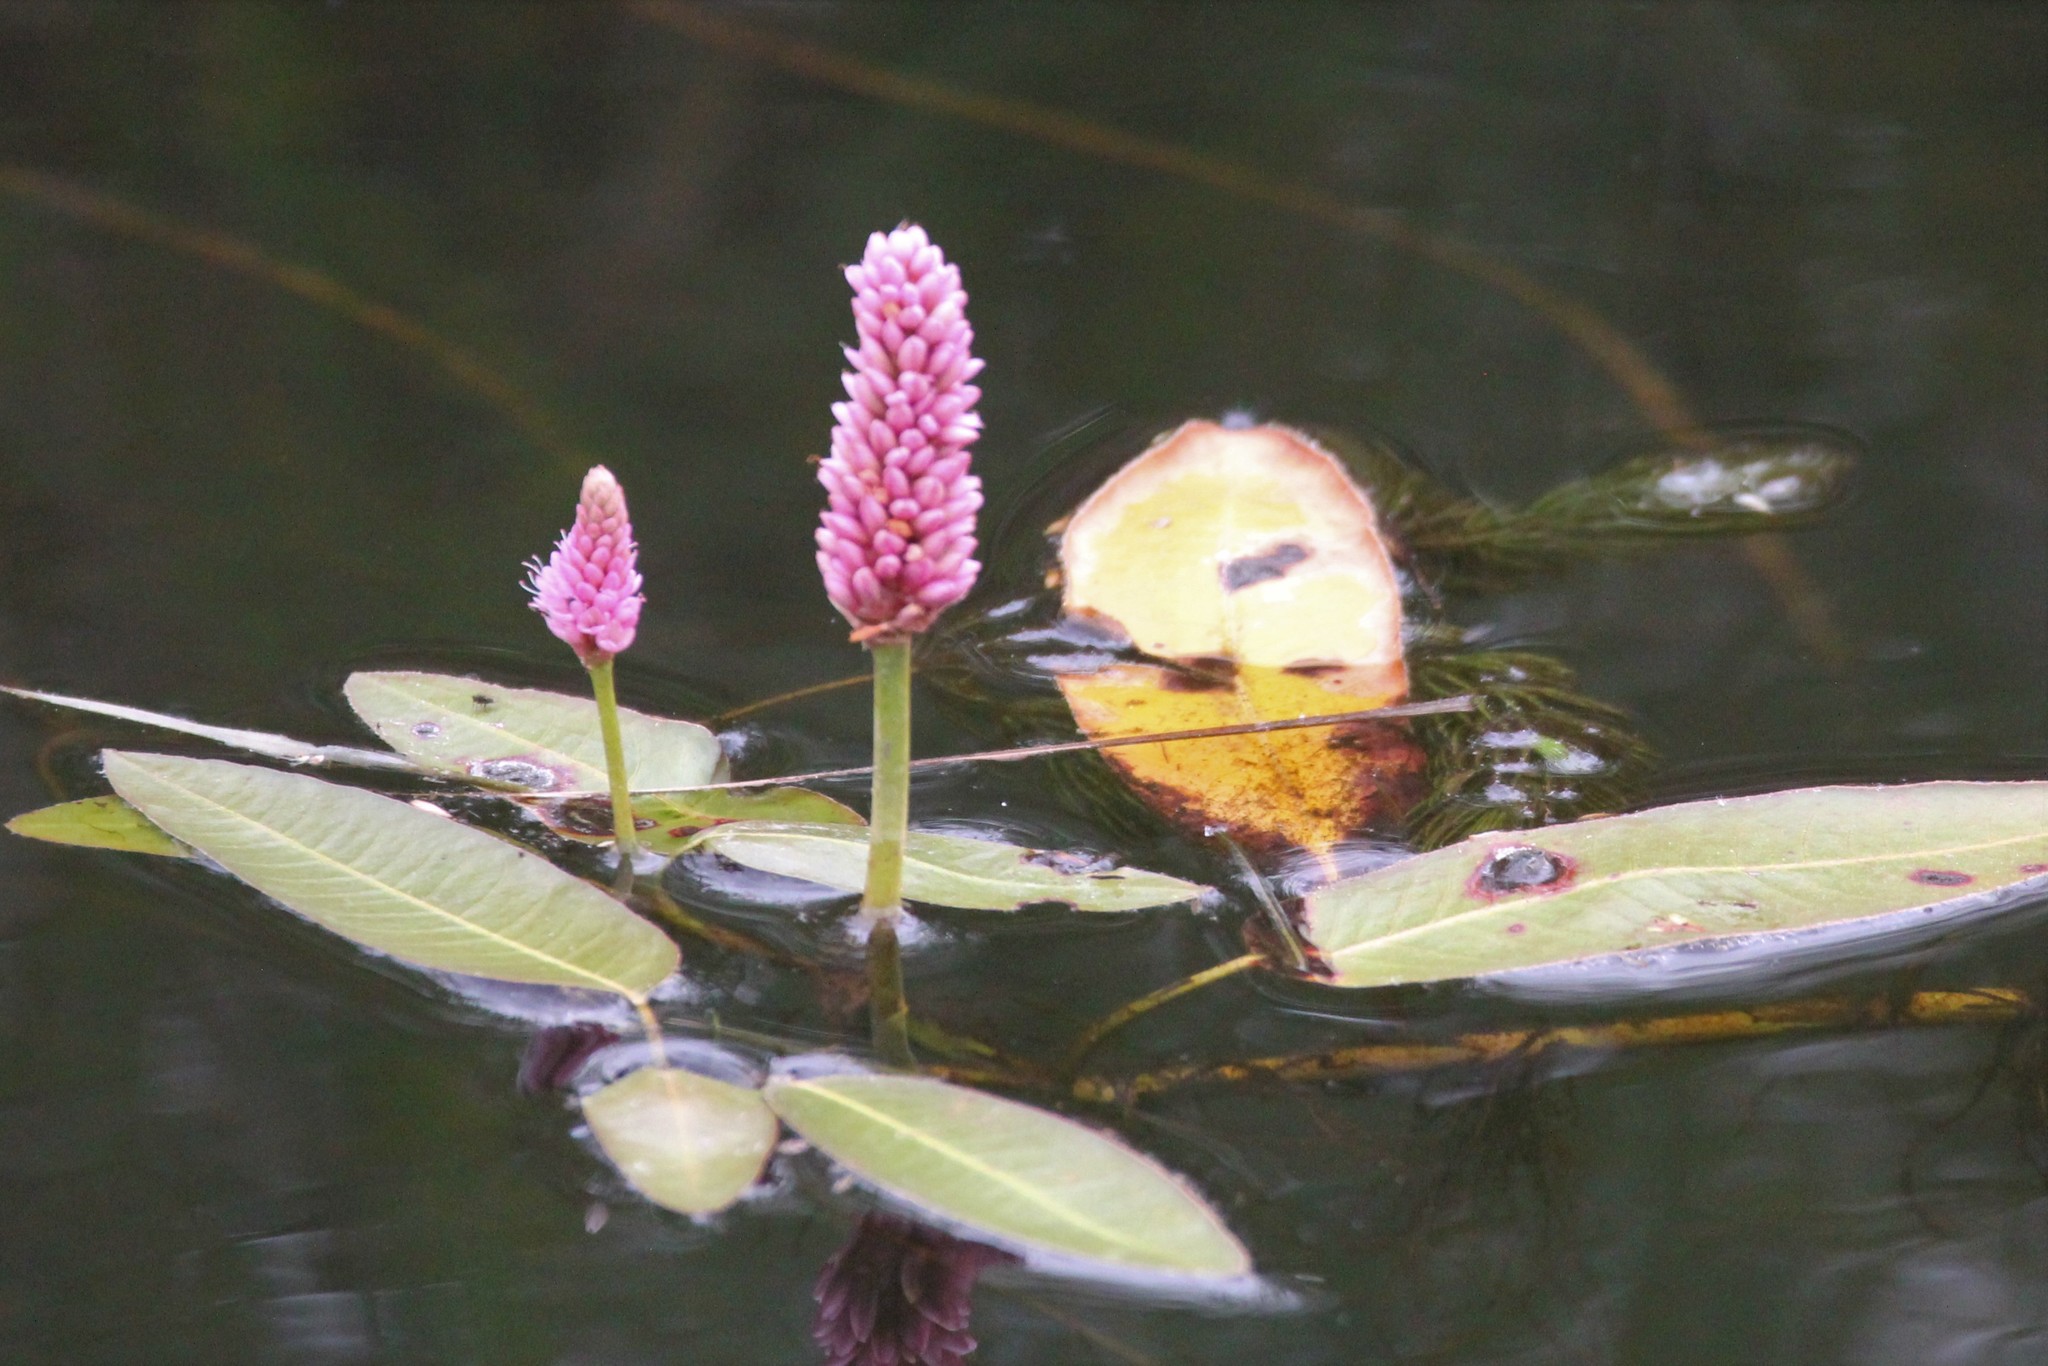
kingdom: Plantae
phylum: Tracheophyta
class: Magnoliopsida
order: Caryophyllales
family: Polygonaceae
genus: Persicaria
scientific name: Persicaria amphibia
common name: Amphibious bistort
